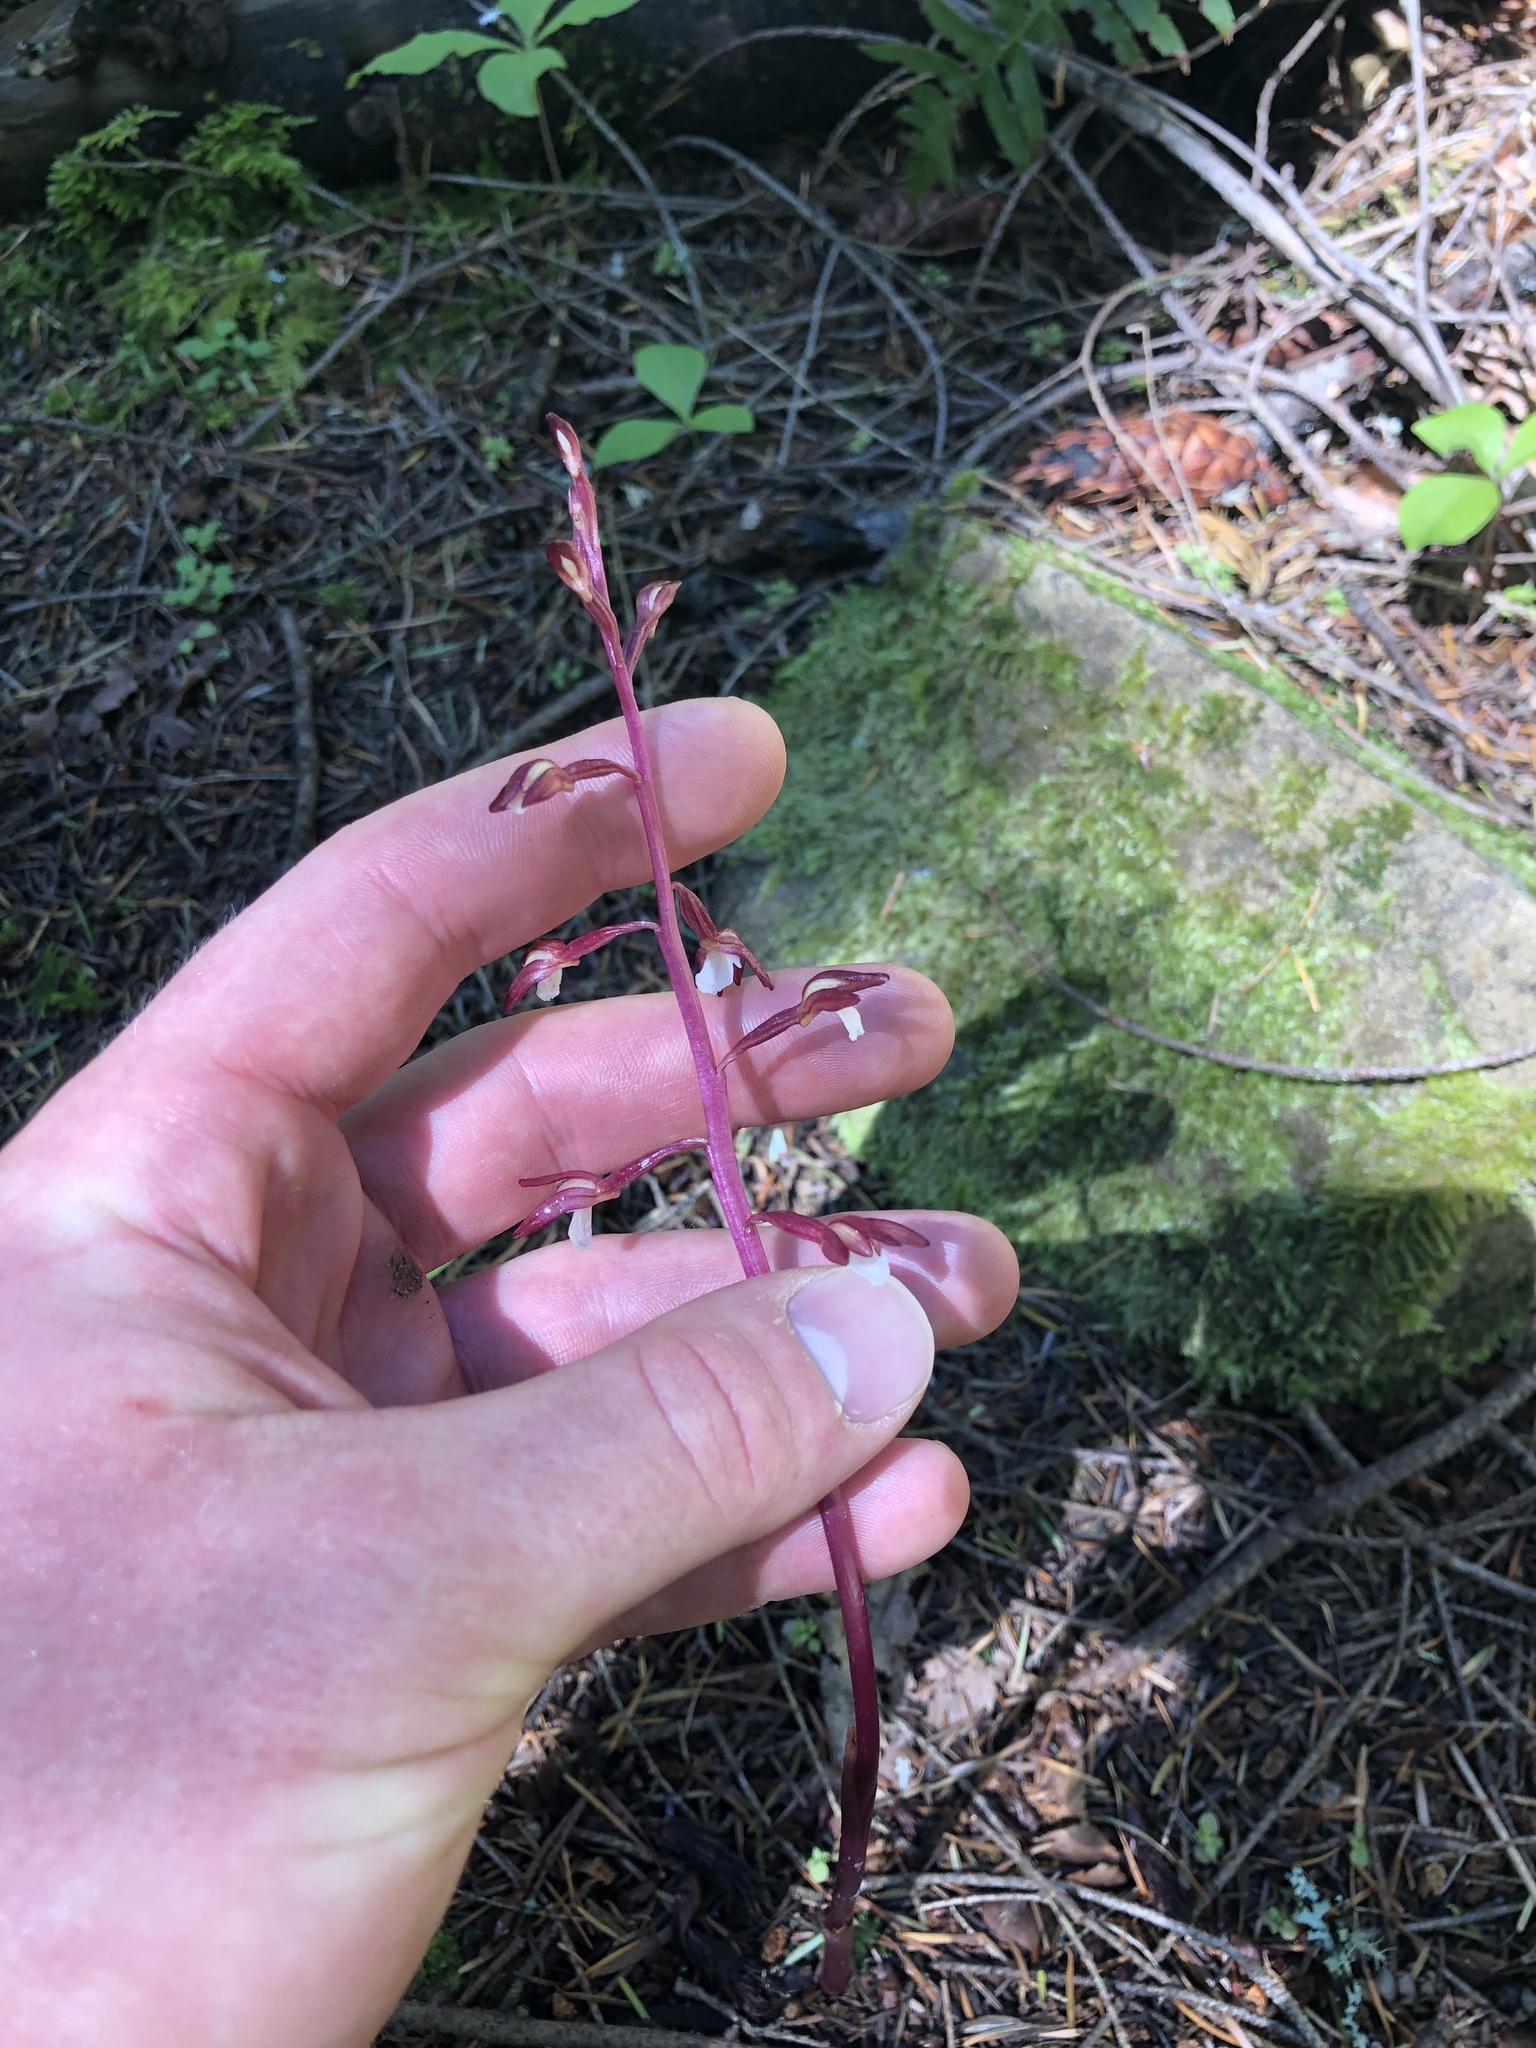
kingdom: Plantae
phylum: Tracheophyta
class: Liliopsida
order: Asparagales
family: Orchidaceae
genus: Corallorhiza
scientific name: Corallorhiza maculata
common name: Spotted coralroot
